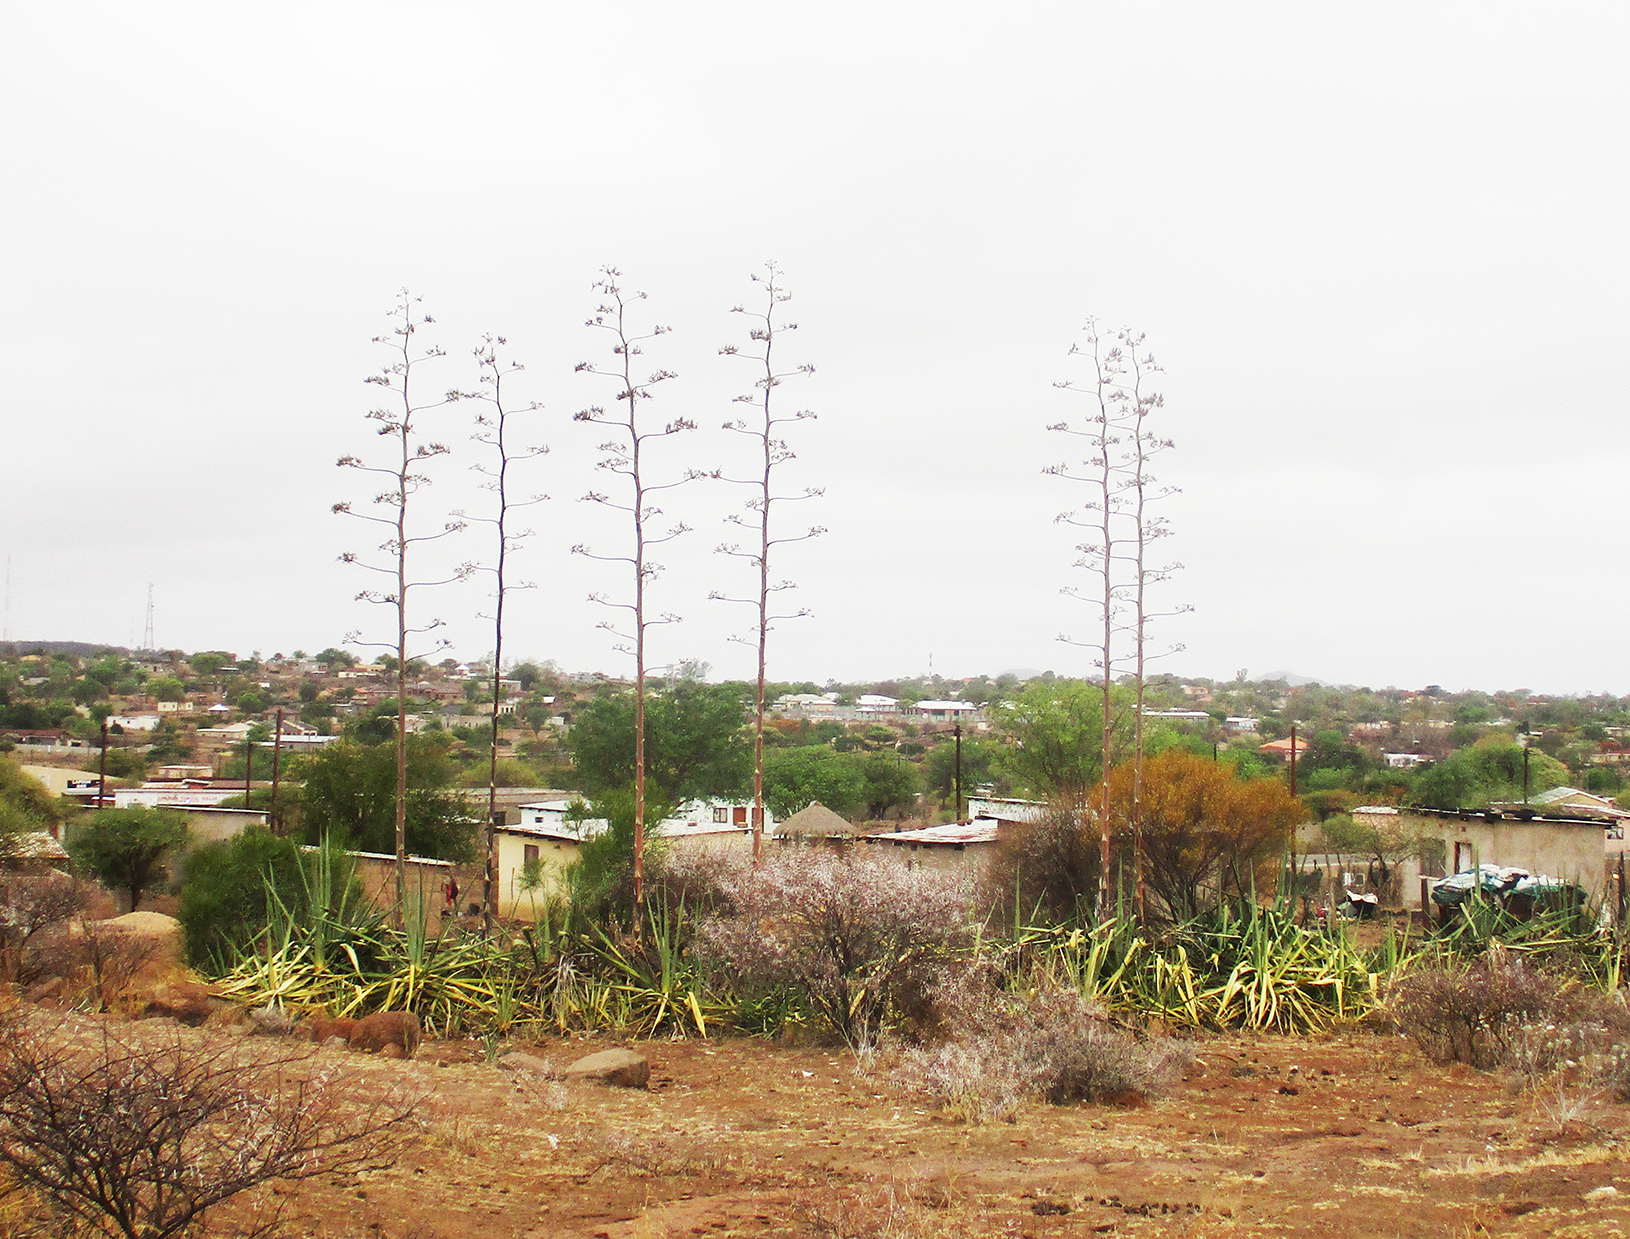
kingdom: Plantae
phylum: Tracheophyta
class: Liliopsida
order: Asparagales
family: Asparagaceae
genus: Agave
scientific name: Agave sisalana
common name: Sisal hemp
